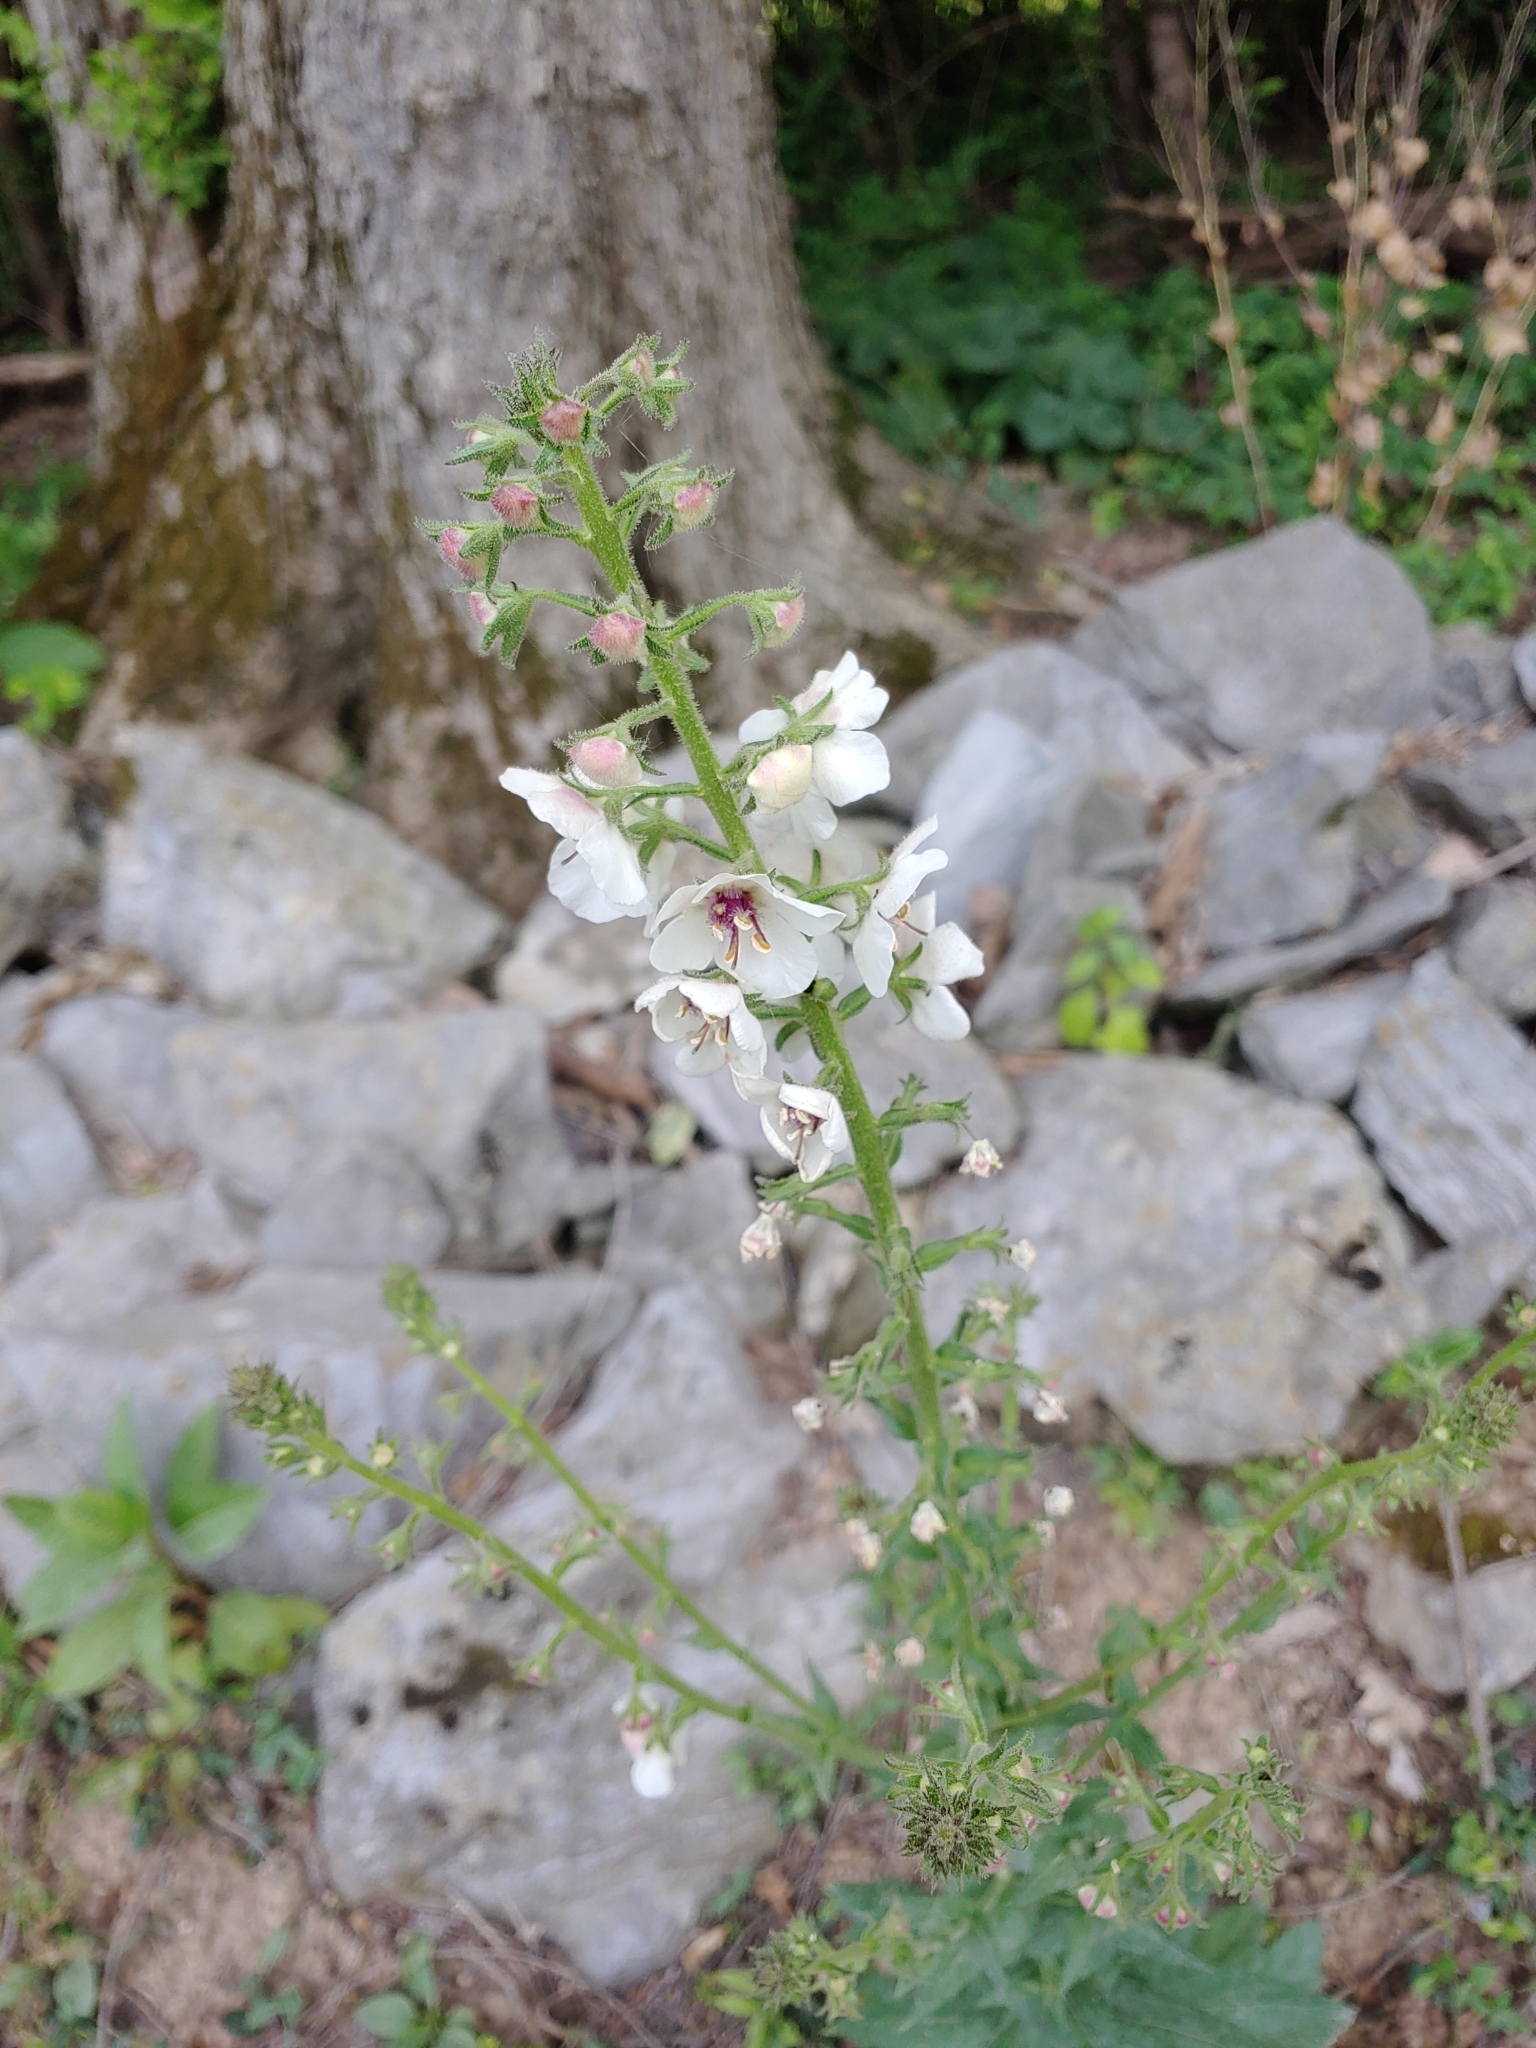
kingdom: Plantae
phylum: Tracheophyta
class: Magnoliopsida
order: Lamiales
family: Scrophulariaceae
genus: Verbascum
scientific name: Verbascum blattaria
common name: Moth mullein
